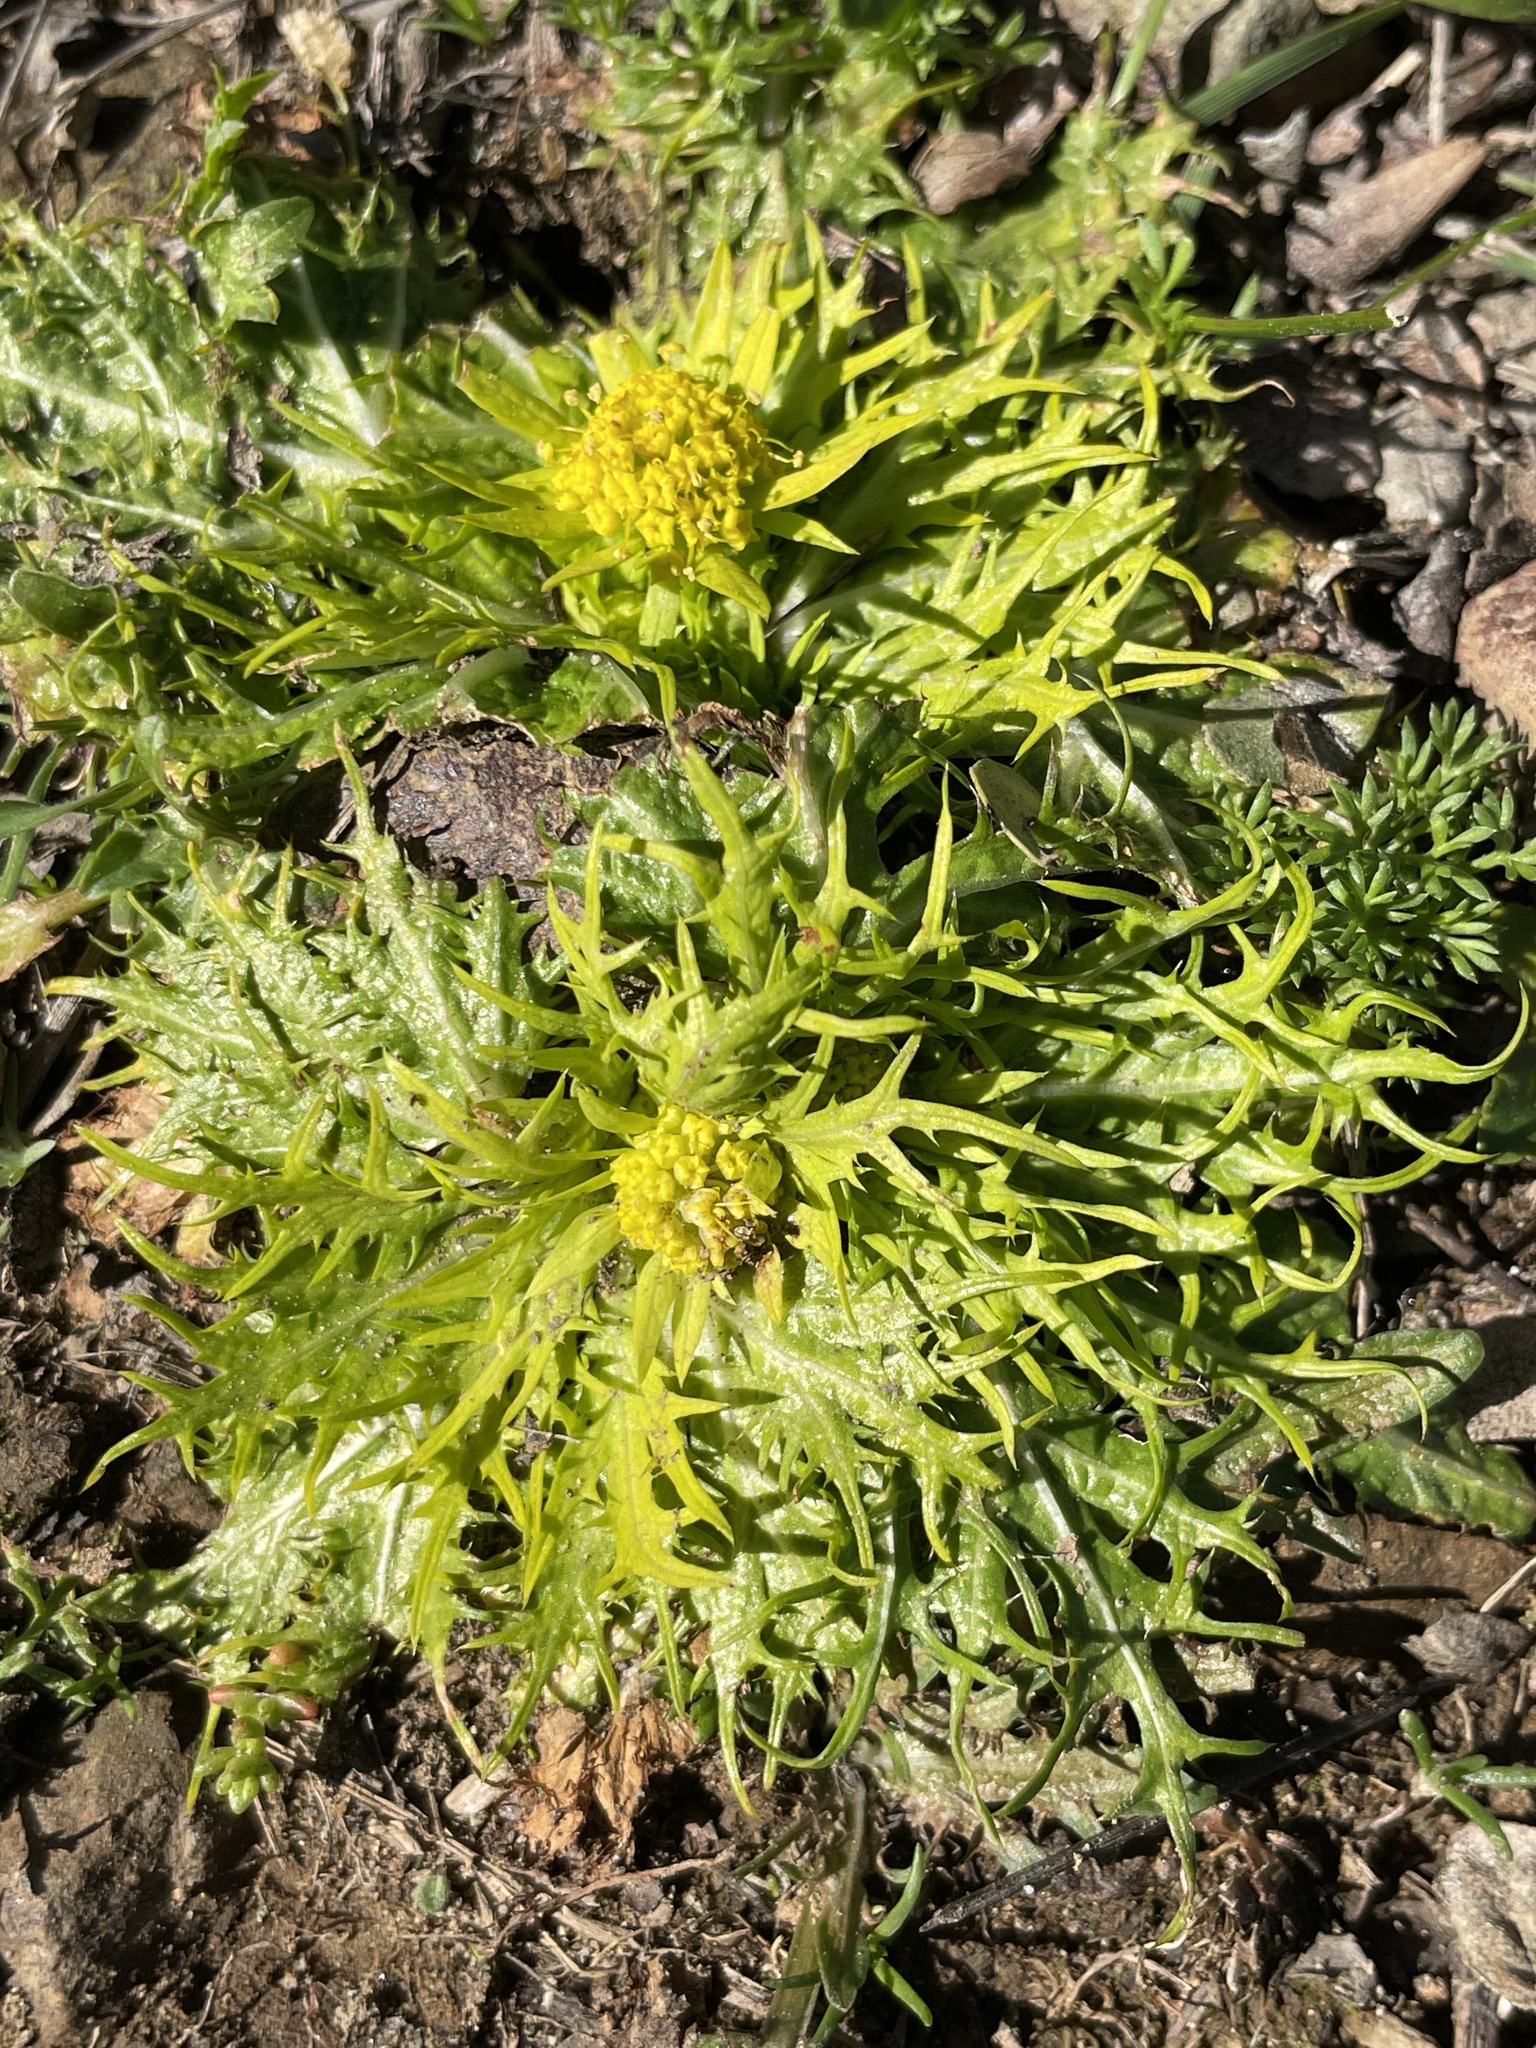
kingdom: Plantae
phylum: Tracheophyta
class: Magnoliopsida
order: Apiales
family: Apiaceae
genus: Sanicula
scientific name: Sanicula arctopoides
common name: Footsteps-of-spring
